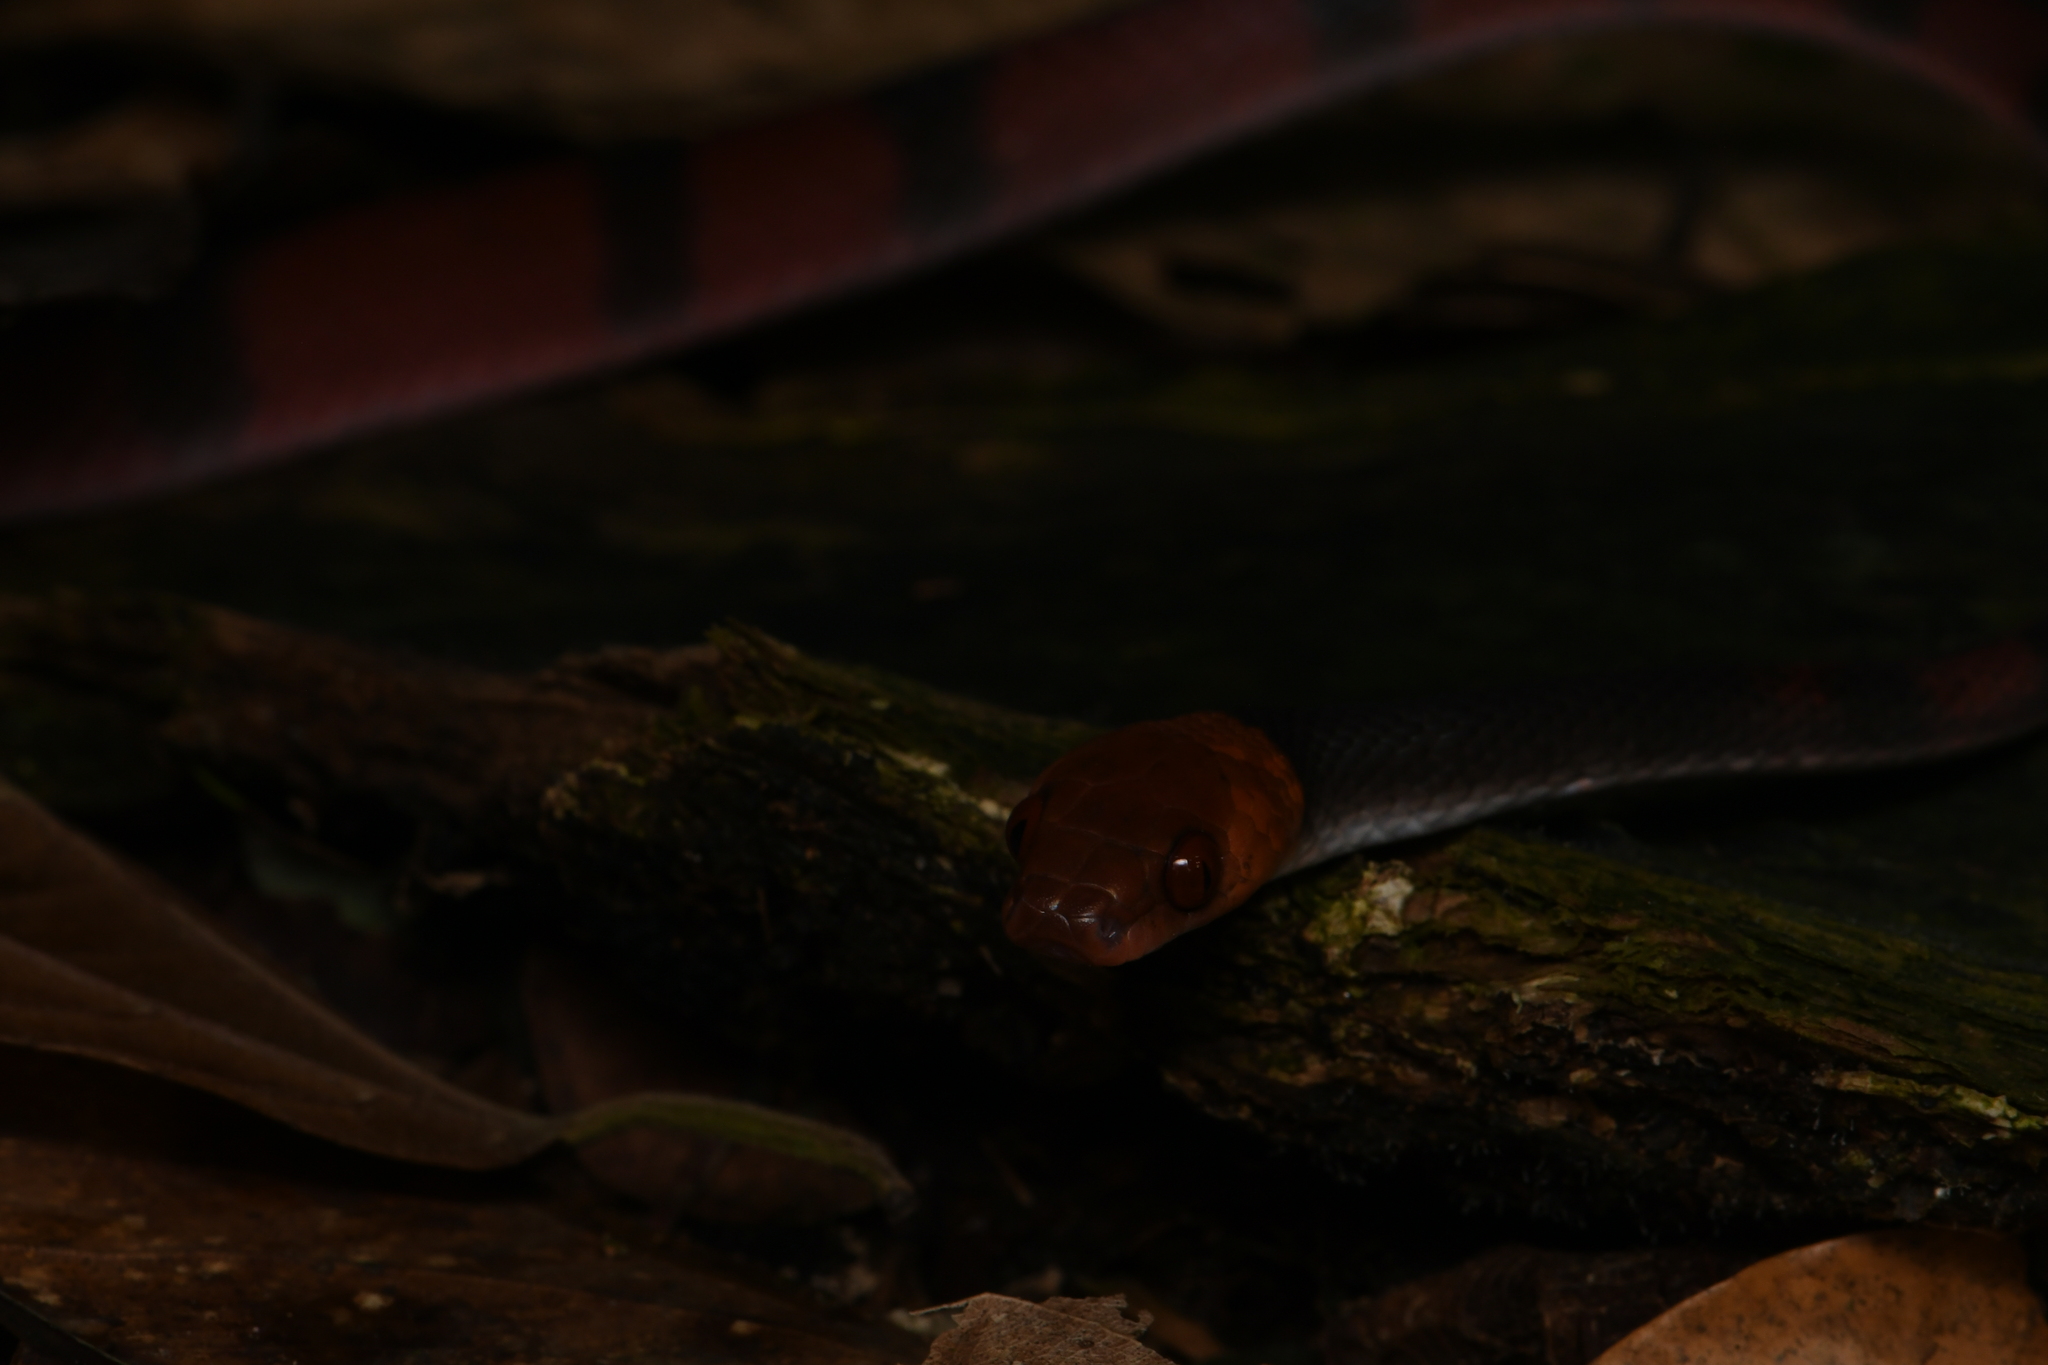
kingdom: Animalia
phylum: Chordata
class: Squamata
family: Colubridae
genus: Siphlophis
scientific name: Siphlophis compressus
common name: Tropical flat snake
